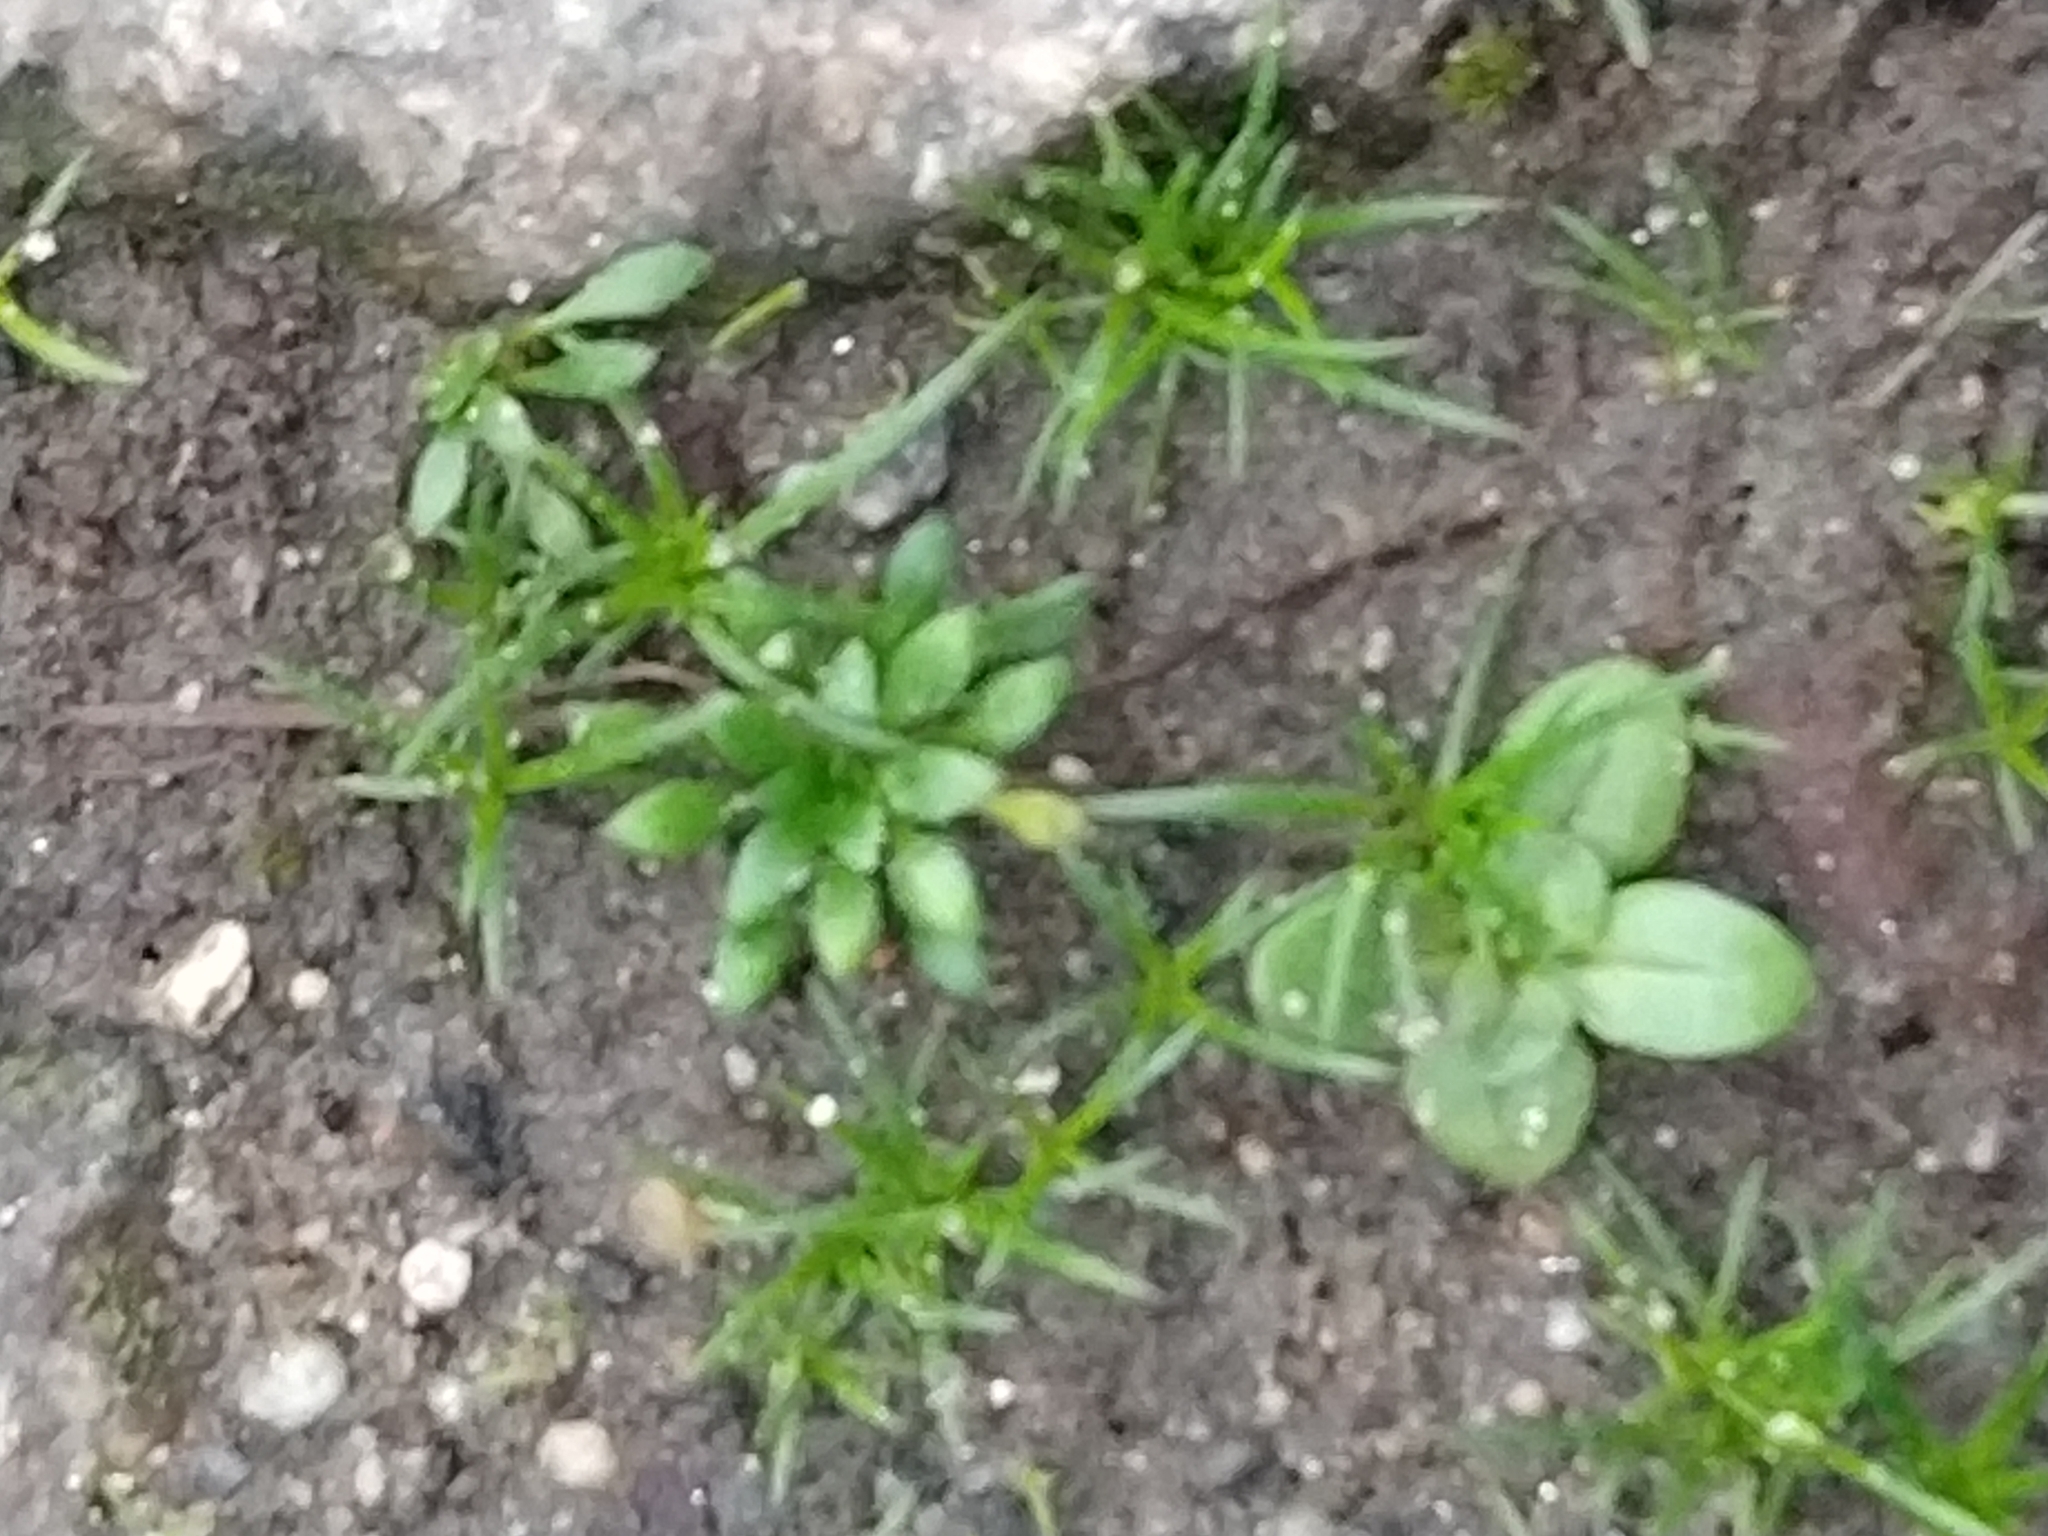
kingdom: Plantae
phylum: Tracheophyta
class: Magnoliopsida
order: Brassicales
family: Brassicaceae
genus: Draba
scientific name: Draba verna
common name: Spring draba
